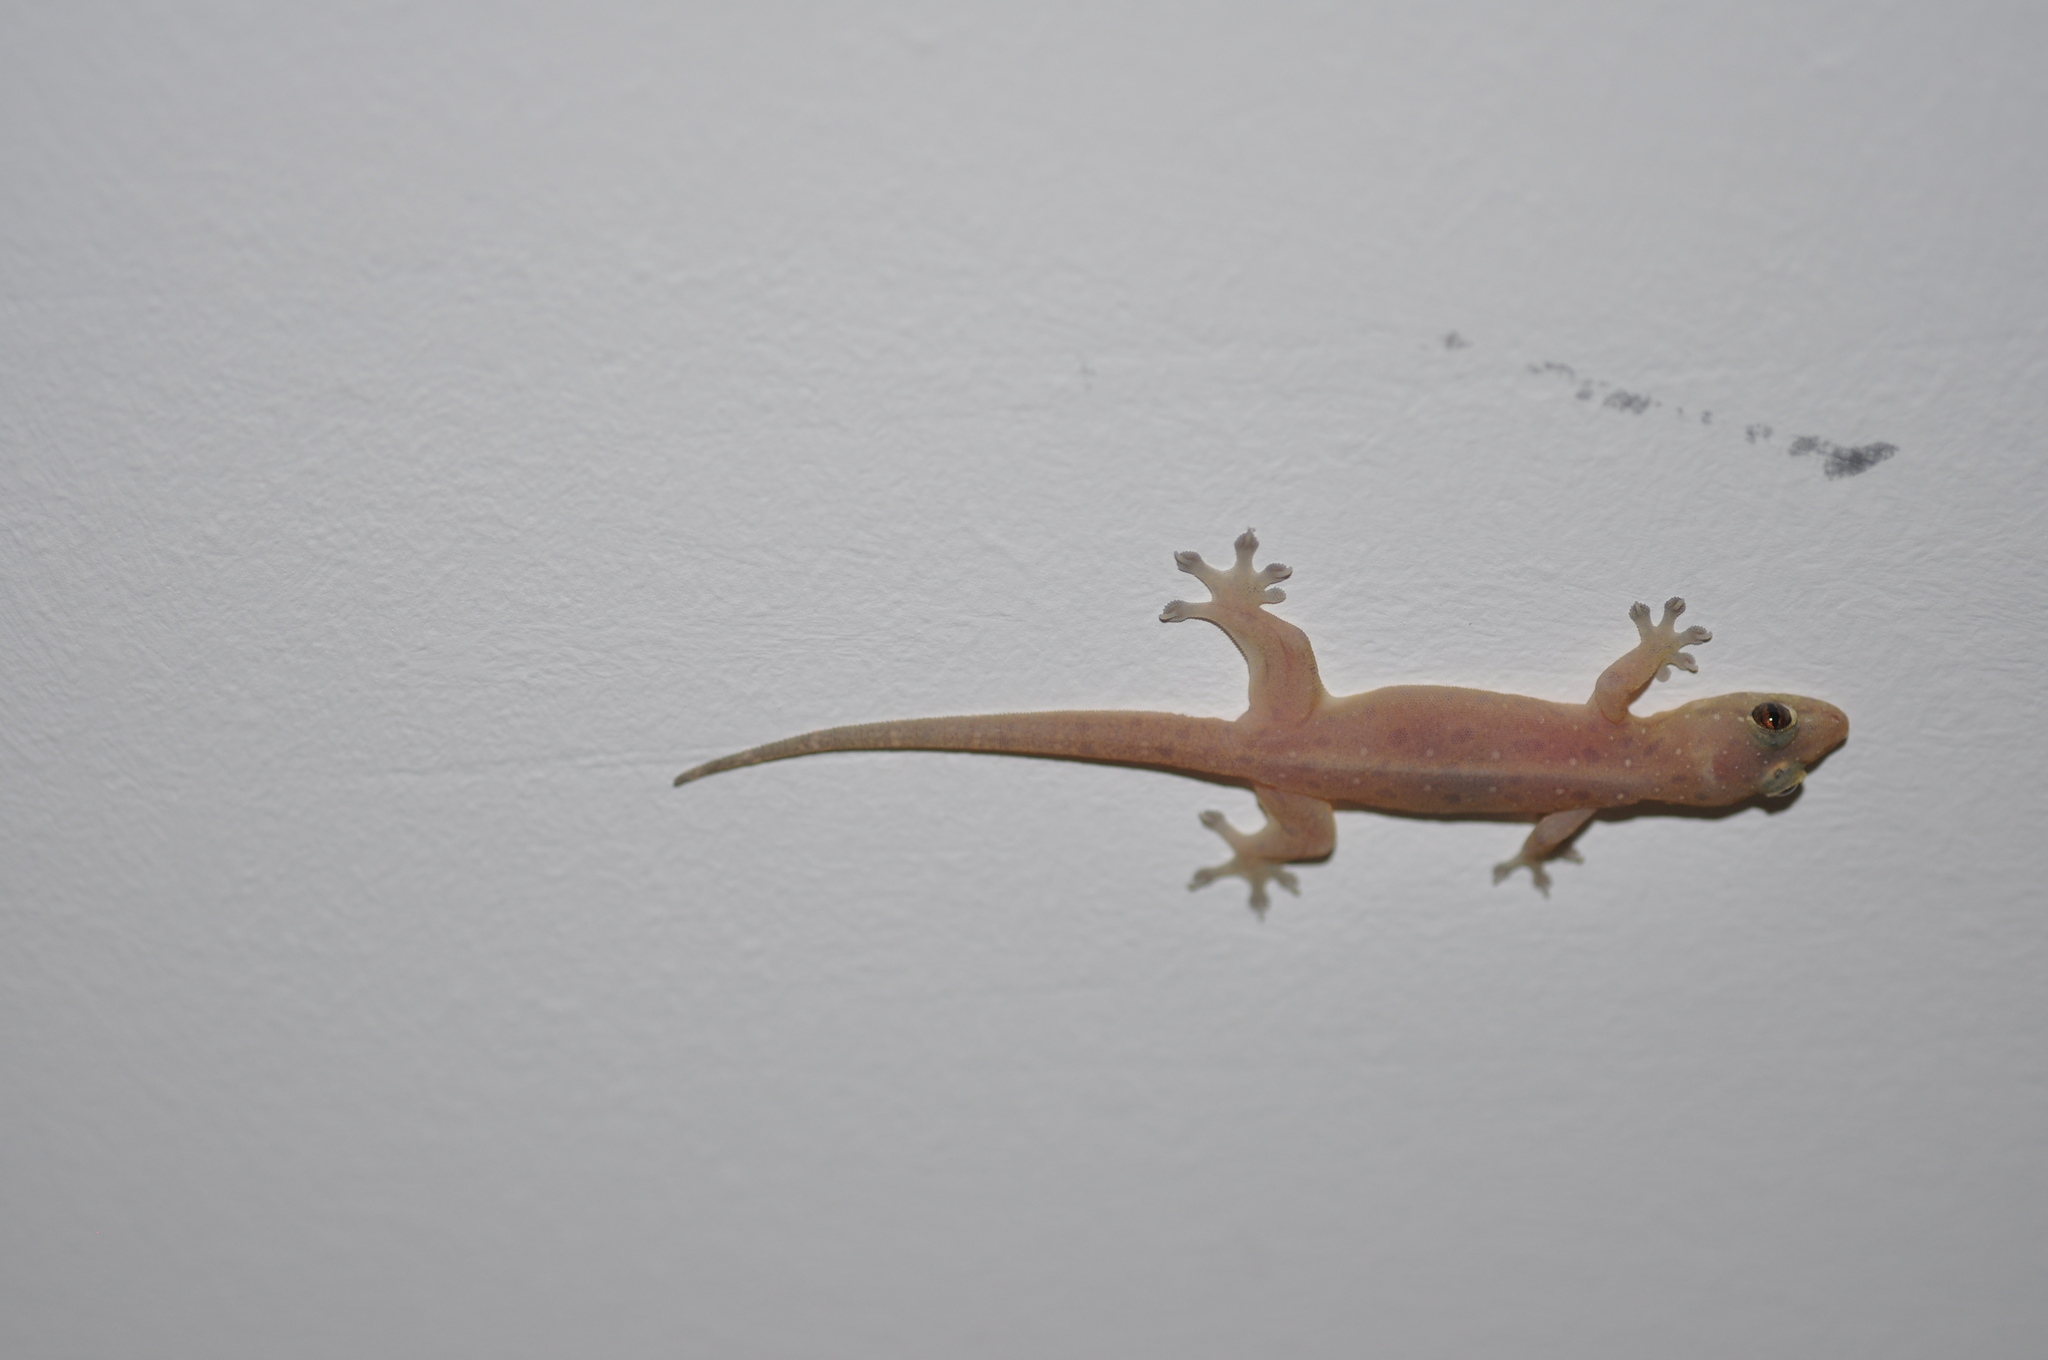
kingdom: Animalia
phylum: Chordata
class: Squamata
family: Gekkonidae
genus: Gehyra
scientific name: Gehyra mutilata
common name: Stump-toed gecko
